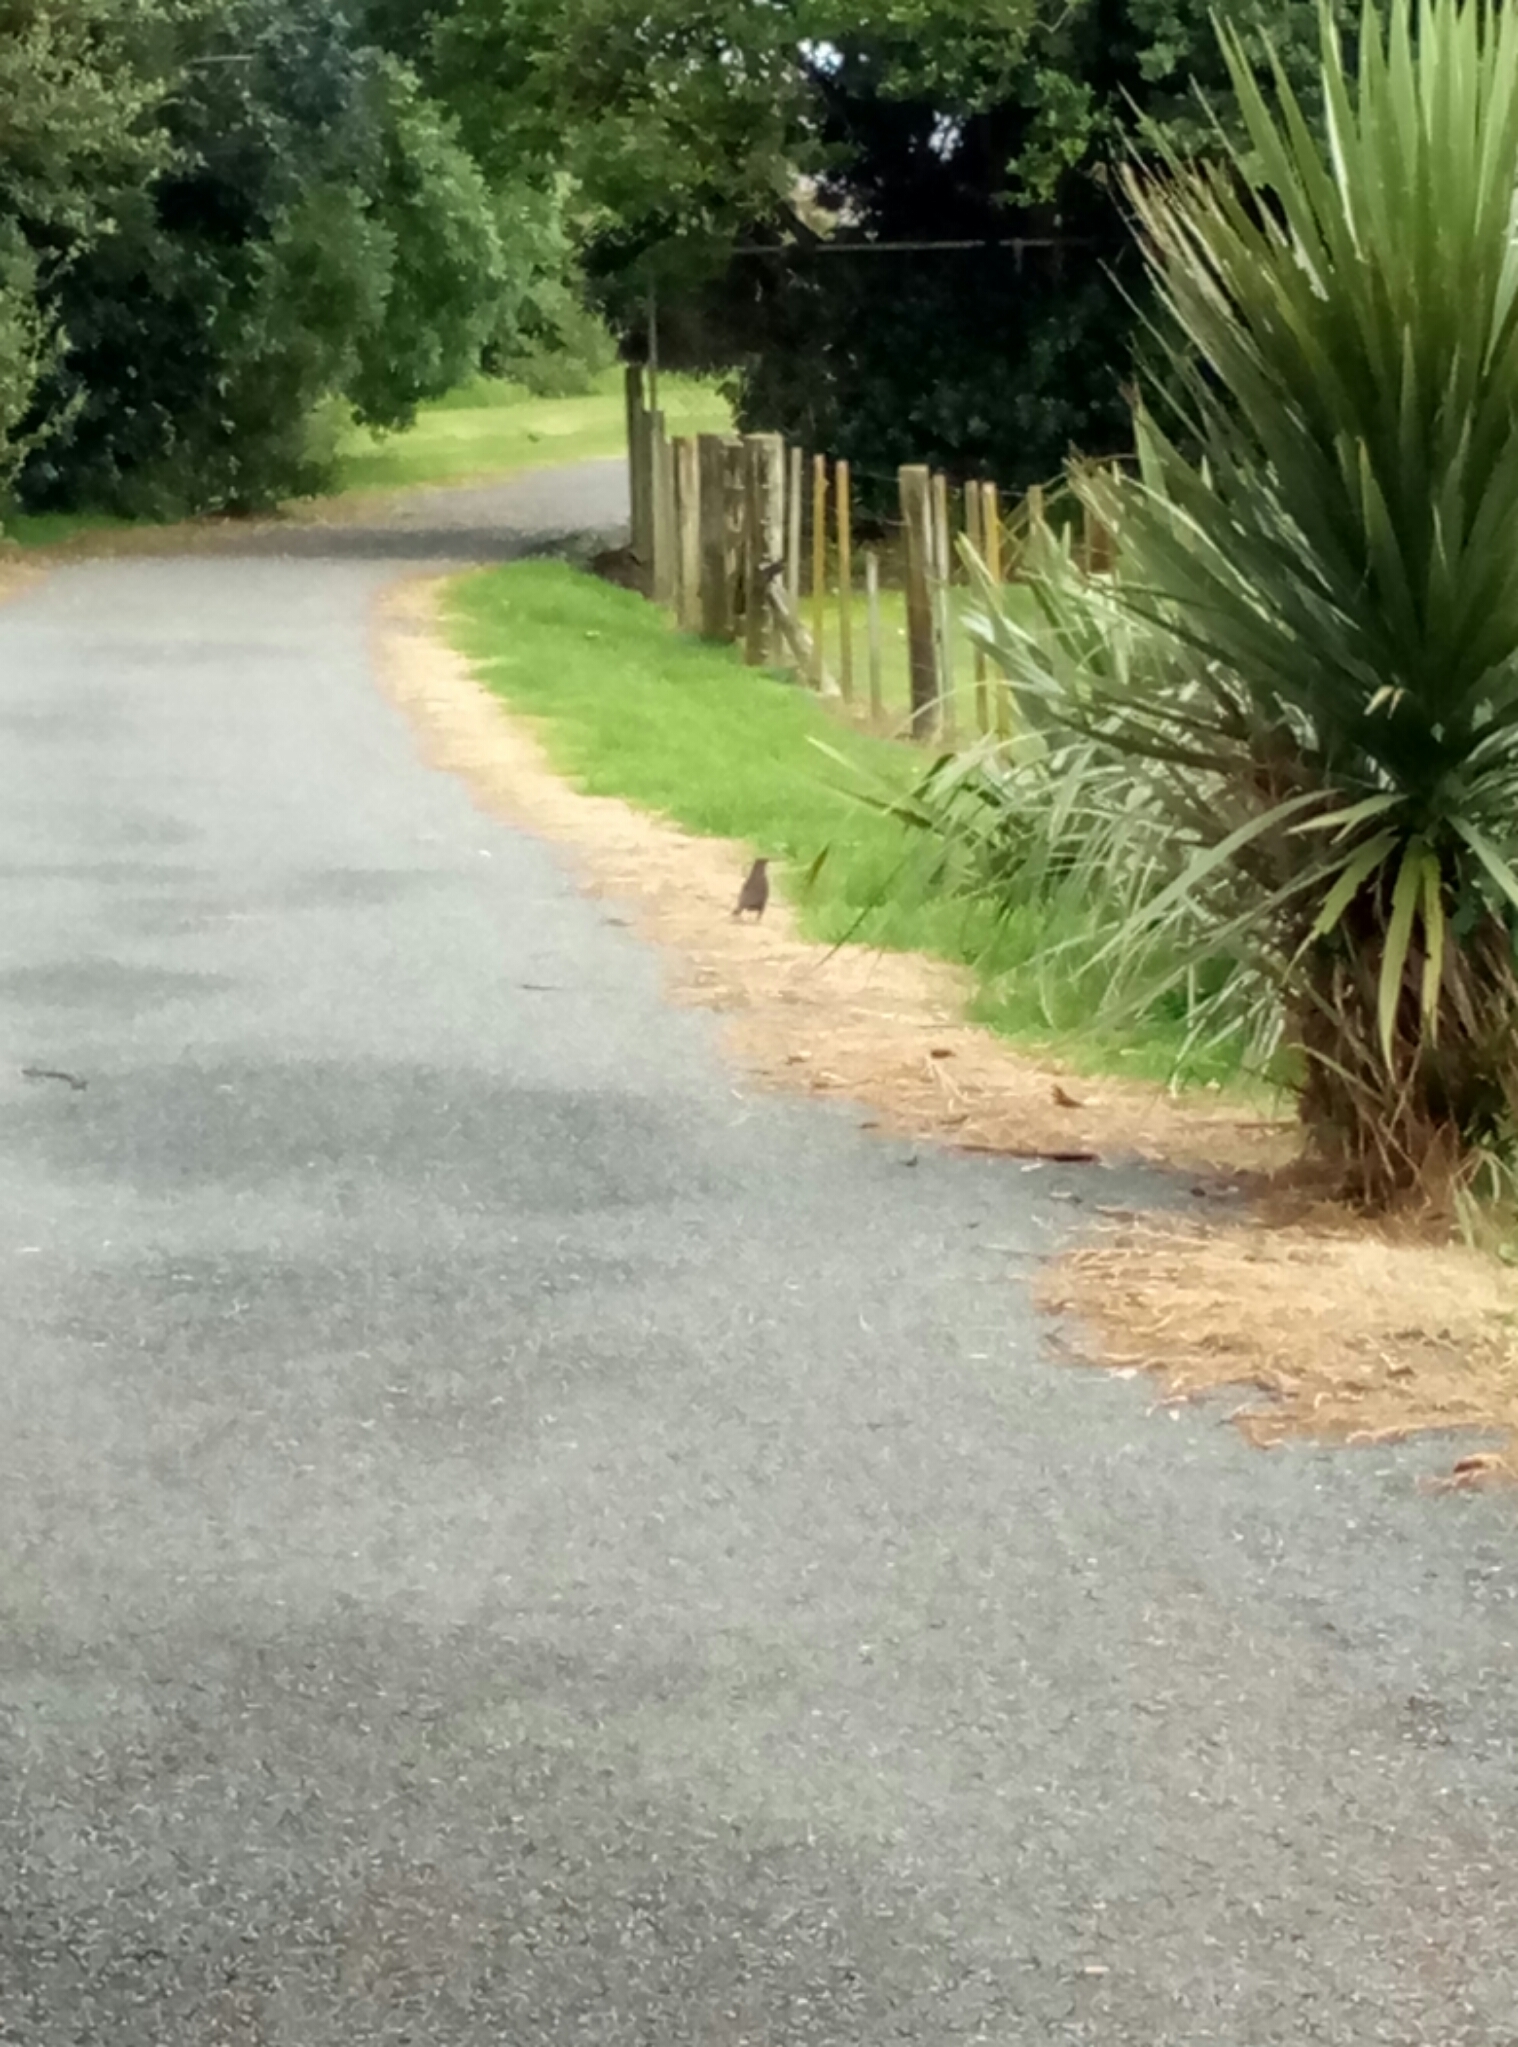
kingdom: Animalia
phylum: Chordata
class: Aves
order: Passeriformes
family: Turdidae
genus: Turdus
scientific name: Turdus merula
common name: Common blackbird
